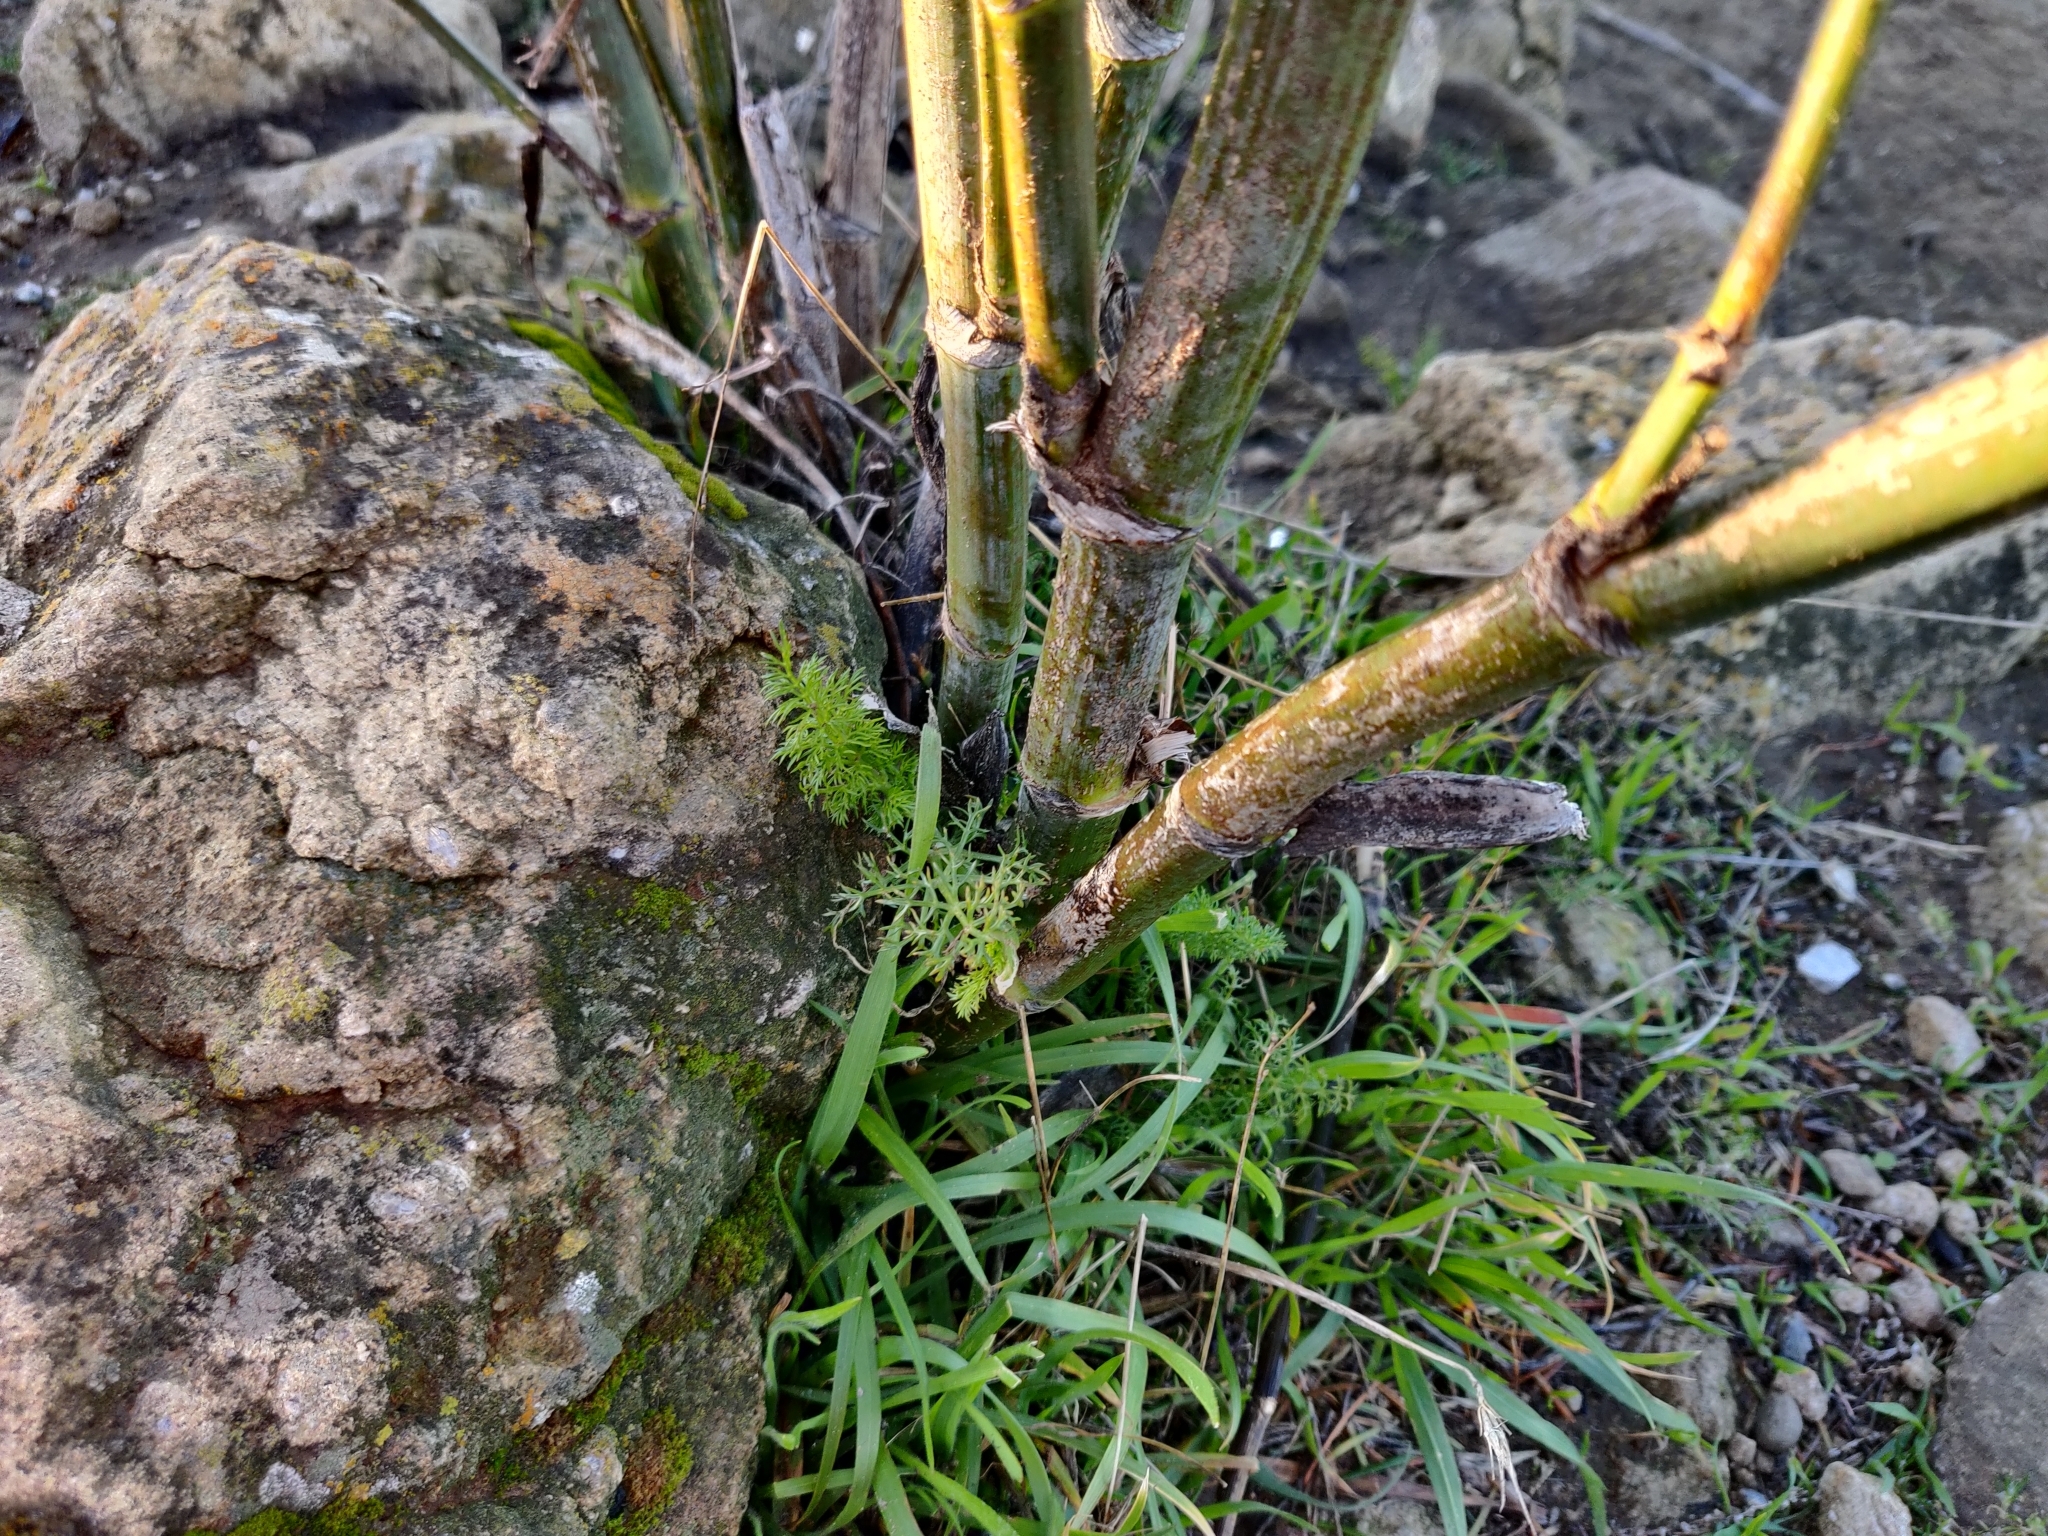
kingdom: Plantae
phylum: Tracheophyta
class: Magnoliopsida
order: Apiales
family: Apiaceae
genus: Foeniculum
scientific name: Foeniculum vulgare
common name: Fennel
